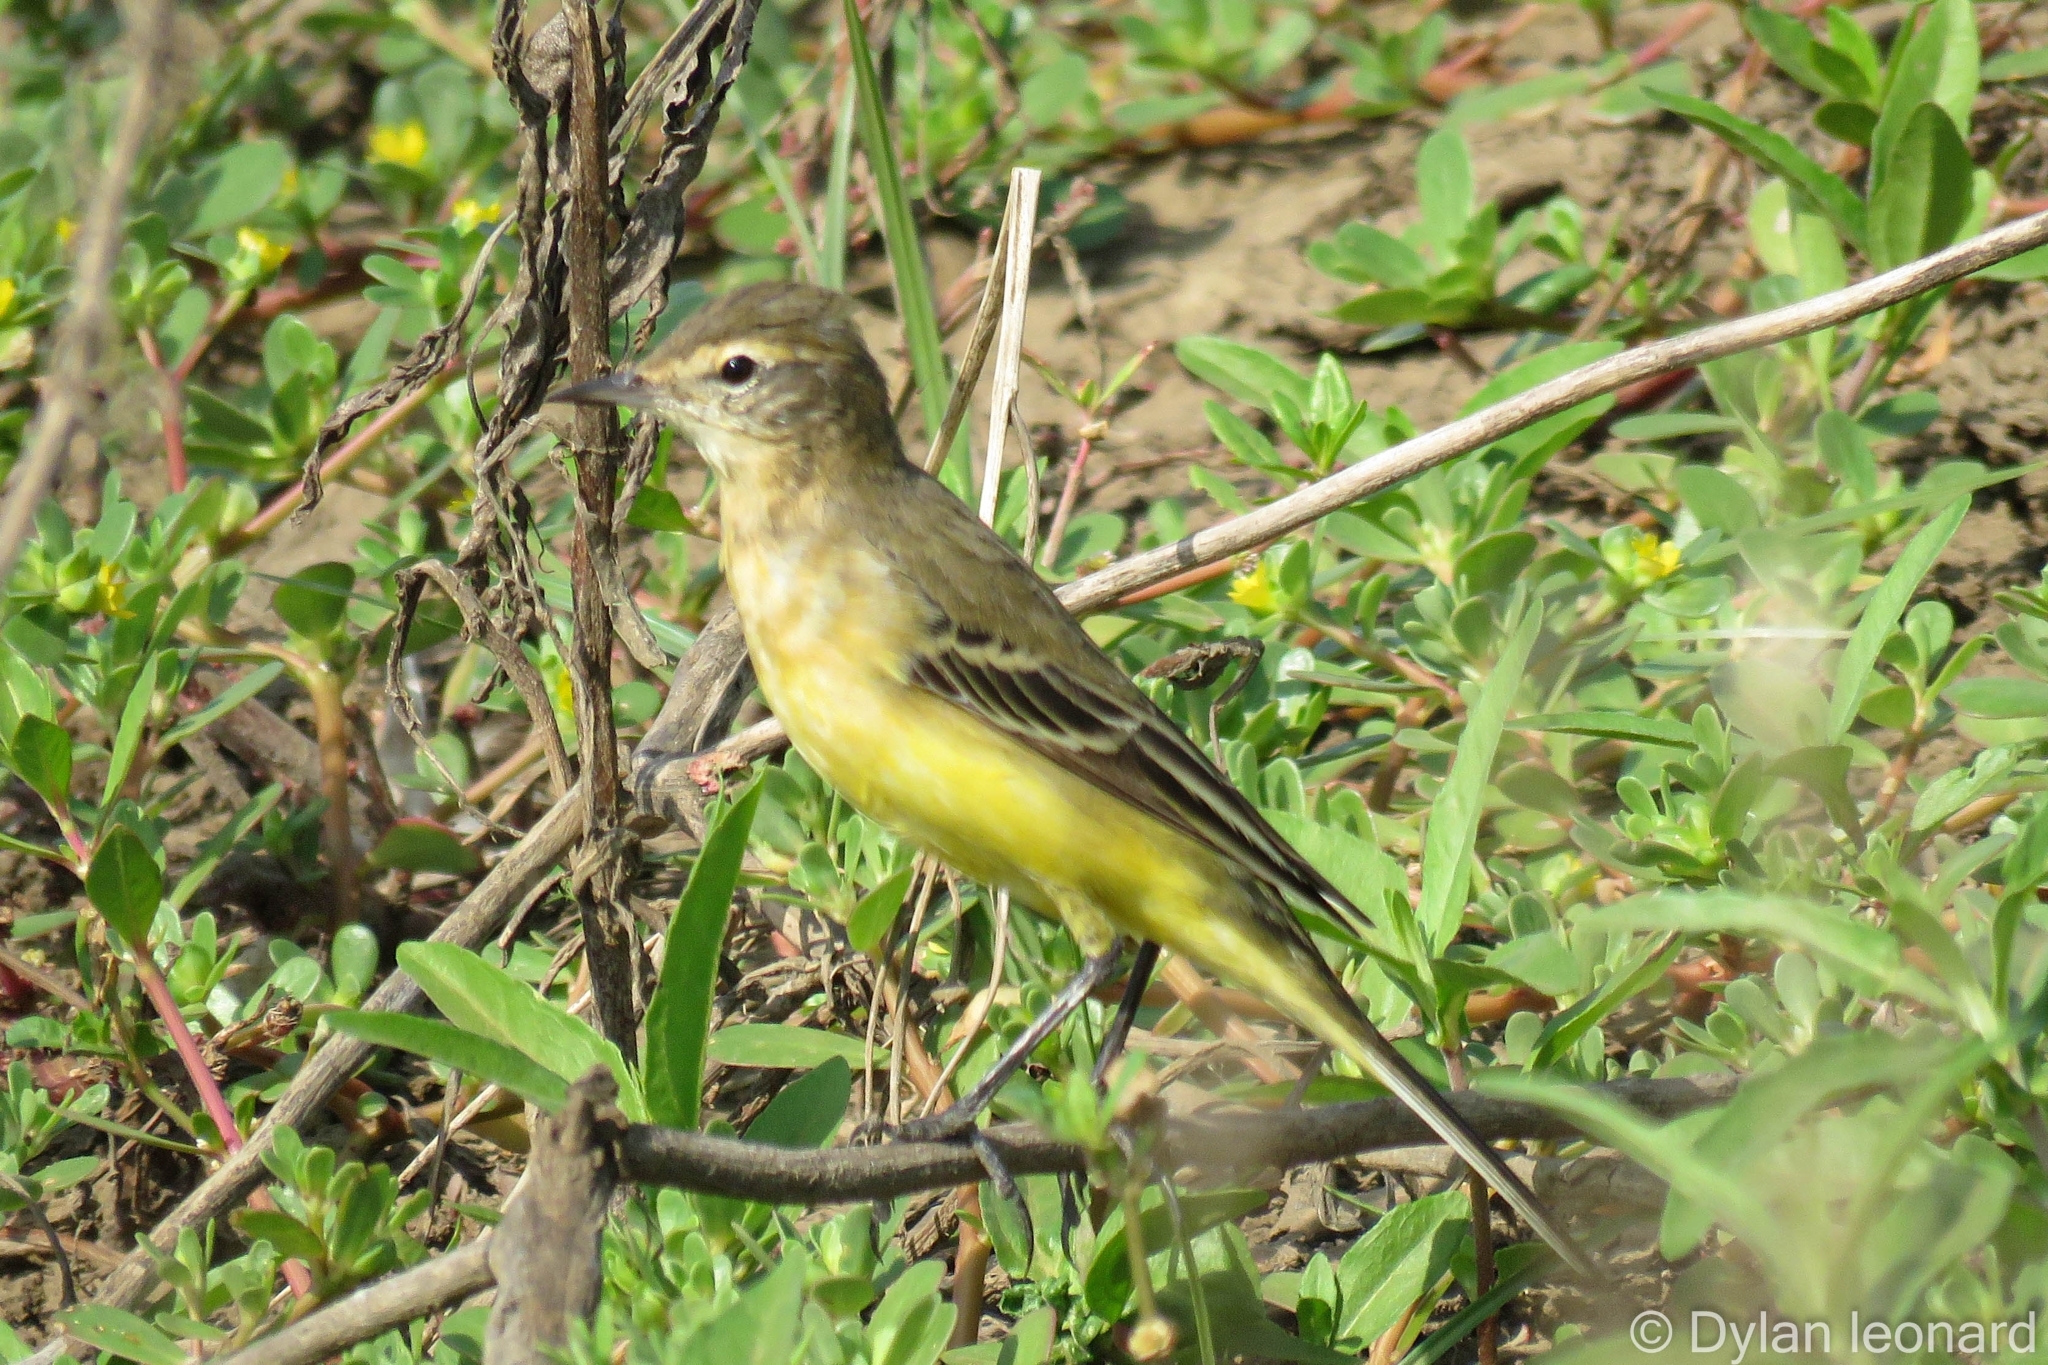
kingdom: Animalia
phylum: Chordata
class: Aves
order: Passeriformes
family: Motacillidae
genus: Motacilla
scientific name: Motacilla flava
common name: Western yellow wagtail
